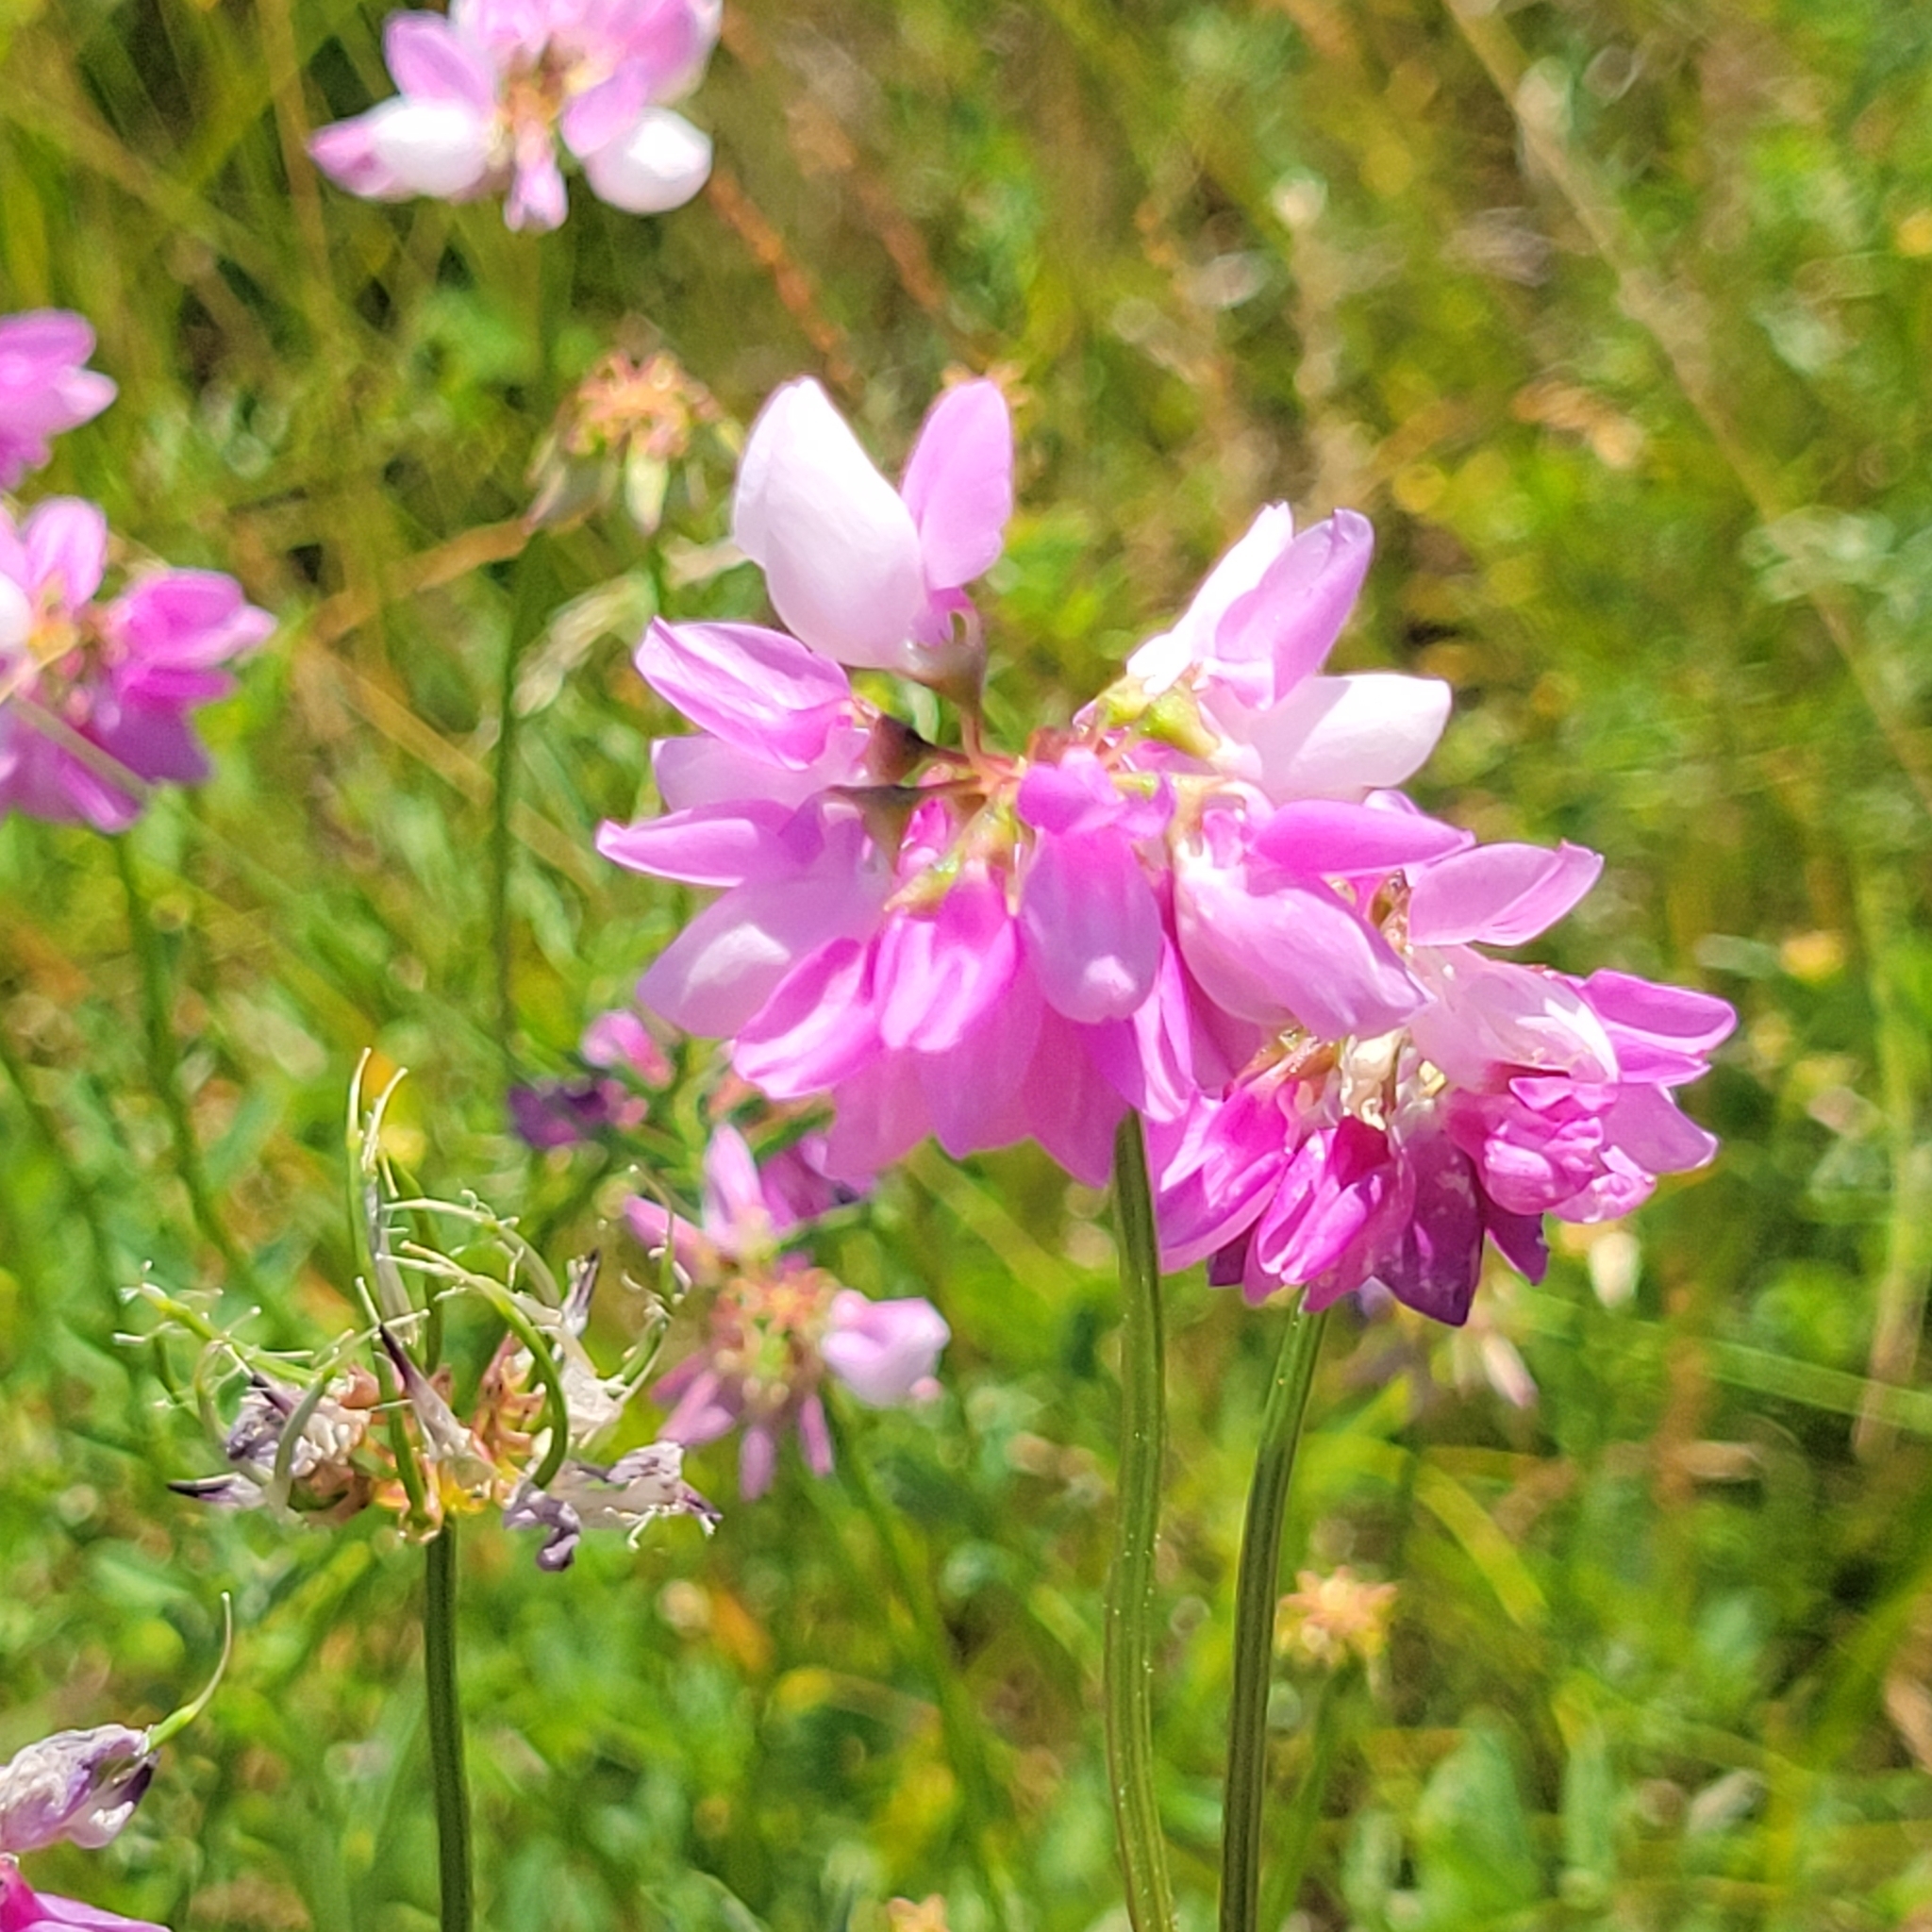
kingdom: Plantae
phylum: Tracheophyta
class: Magnoliopsida
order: Fabales
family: Fabaceae
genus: Coronilla
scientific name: Coronilla varia
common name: Crownvetch
